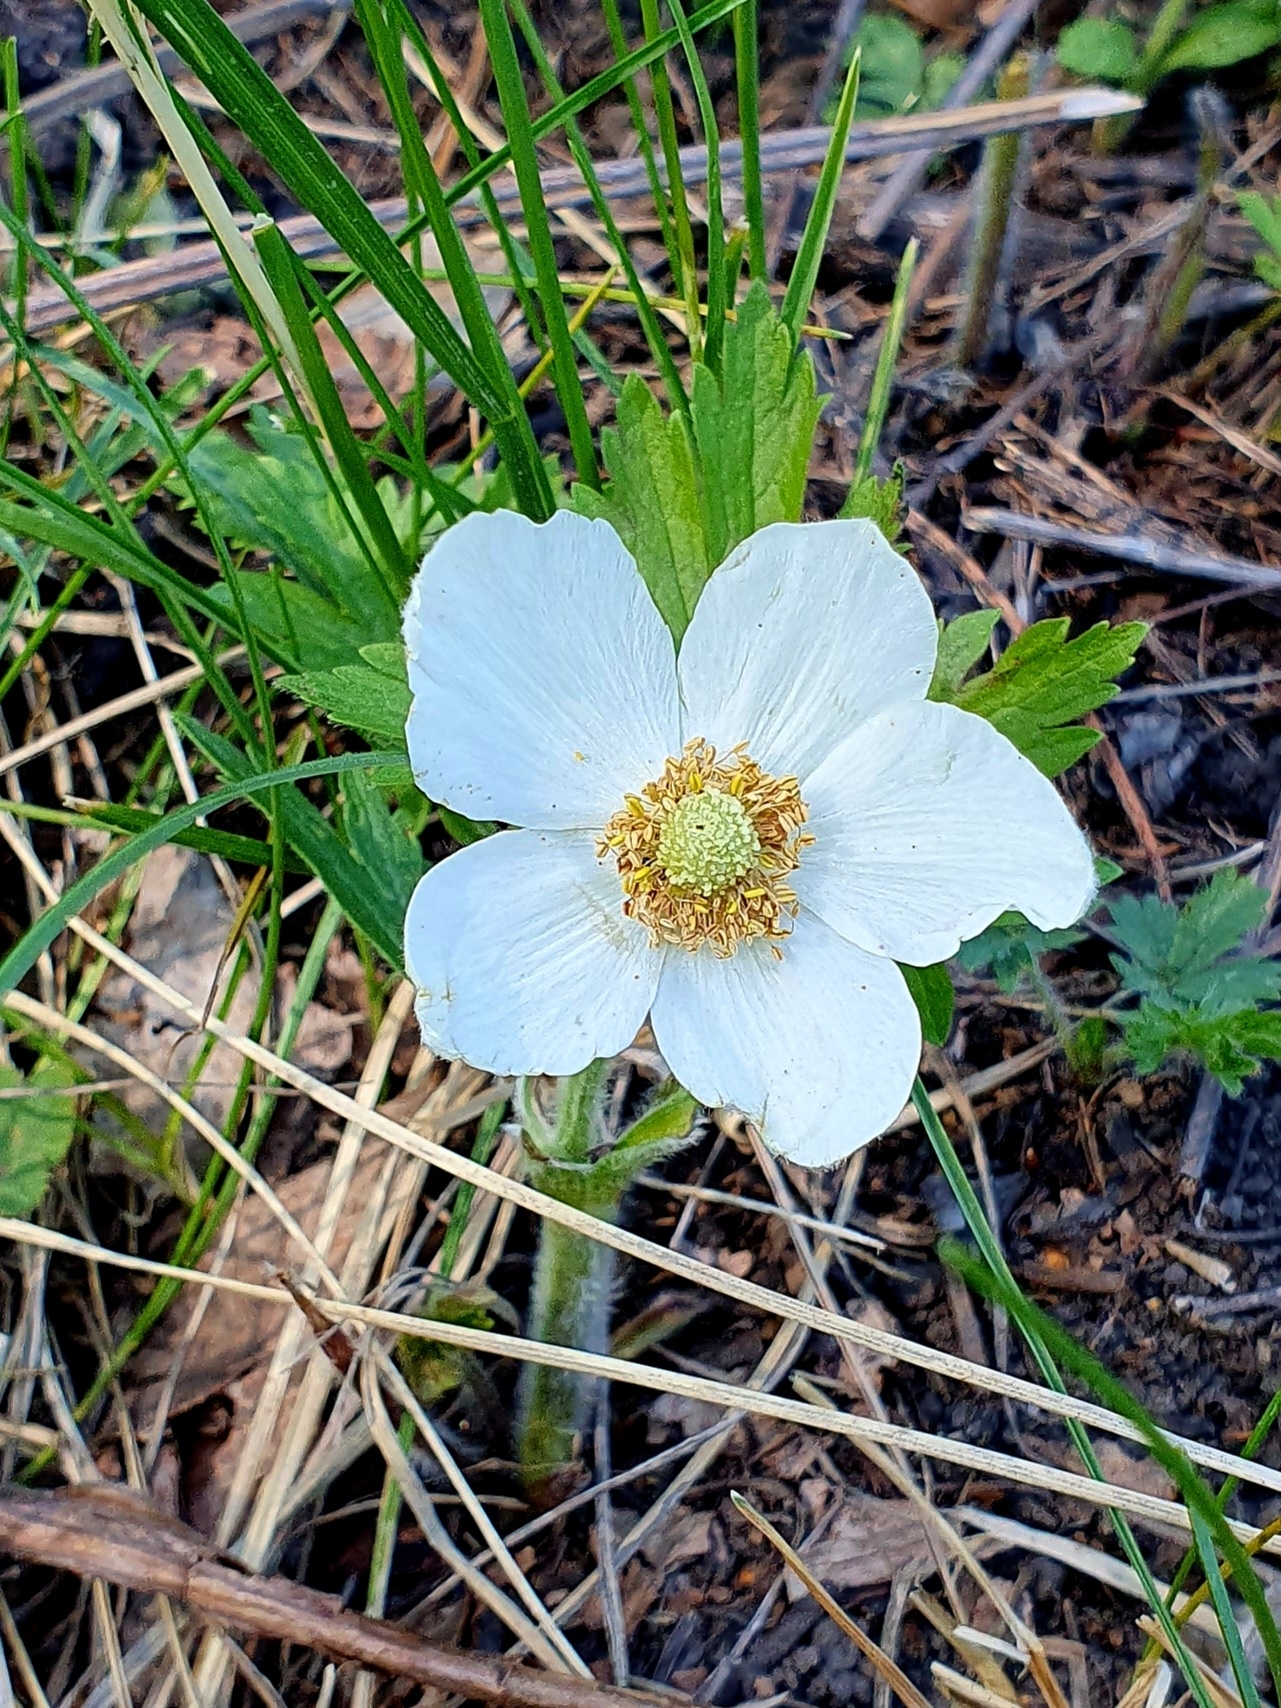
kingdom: Plantae
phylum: Tracheophyta
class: Magnoliopsida
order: Ranunculales
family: Ranunculaceae
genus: Anemone
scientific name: Anemone sylvestris
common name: Snowdrop anemone
